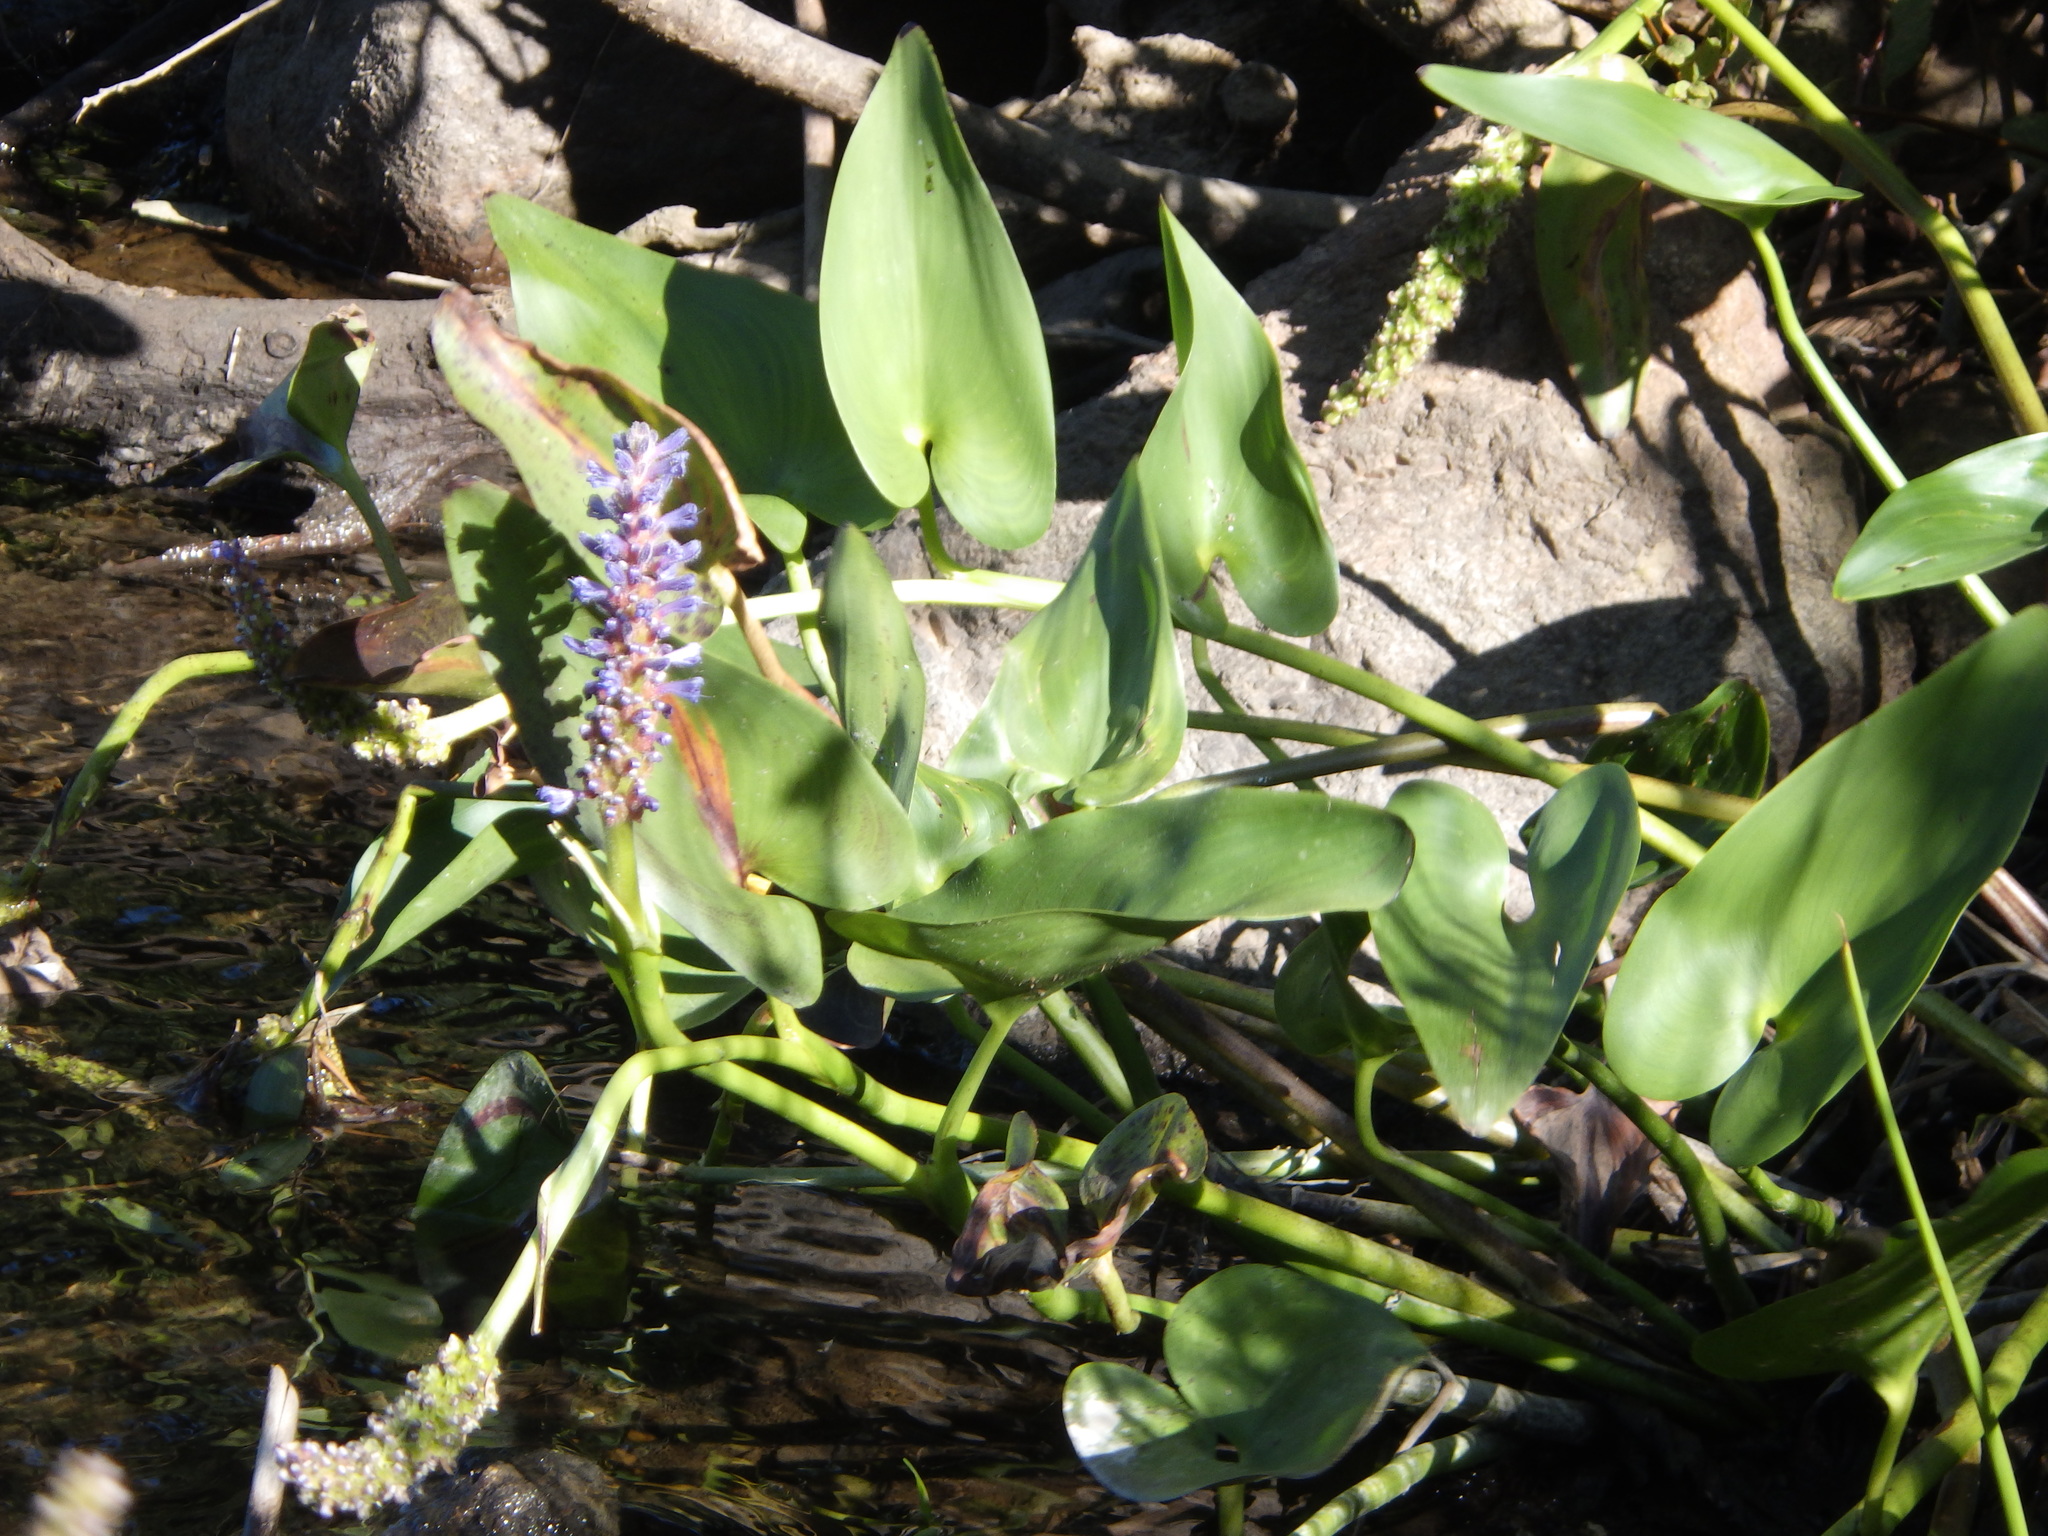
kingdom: Plantae
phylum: Tracheophyta
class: Liliopsida
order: Commelinales
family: Pontederiaceae
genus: Pontederia
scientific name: Pontederia cordata
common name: Pickerelweed
